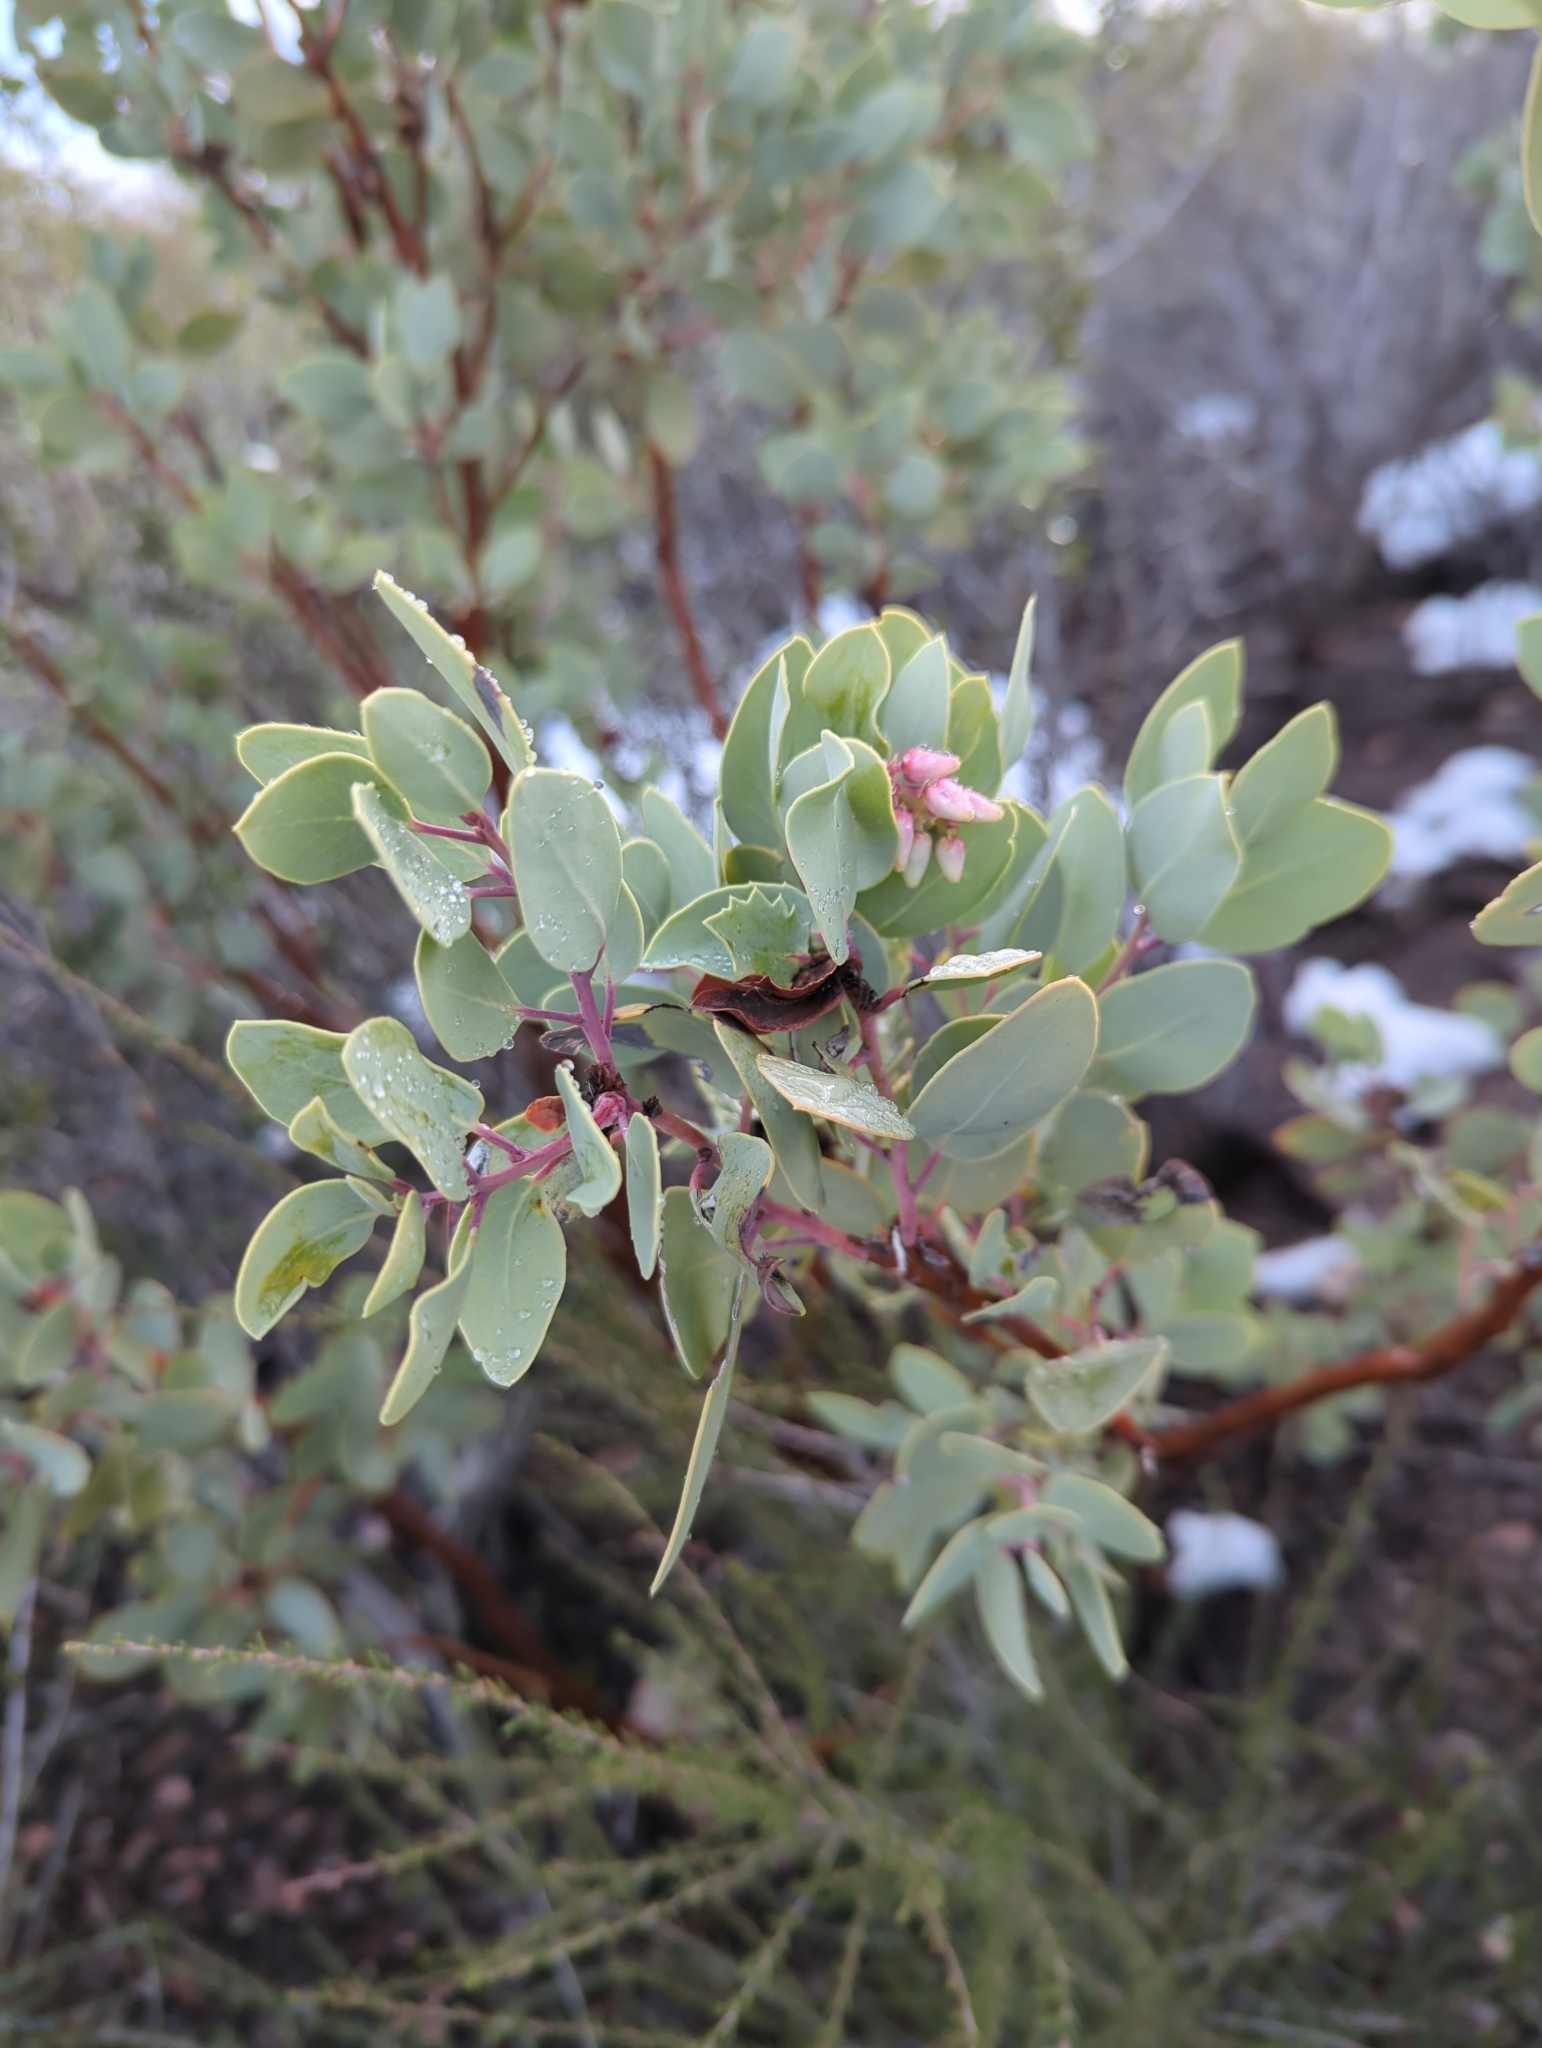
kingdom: Plantae
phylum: Tracheophyta
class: Magnoliopsida
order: Ericales
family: Ericaceae
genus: Arctostaphylos
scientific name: Arctostaphylos glauca
